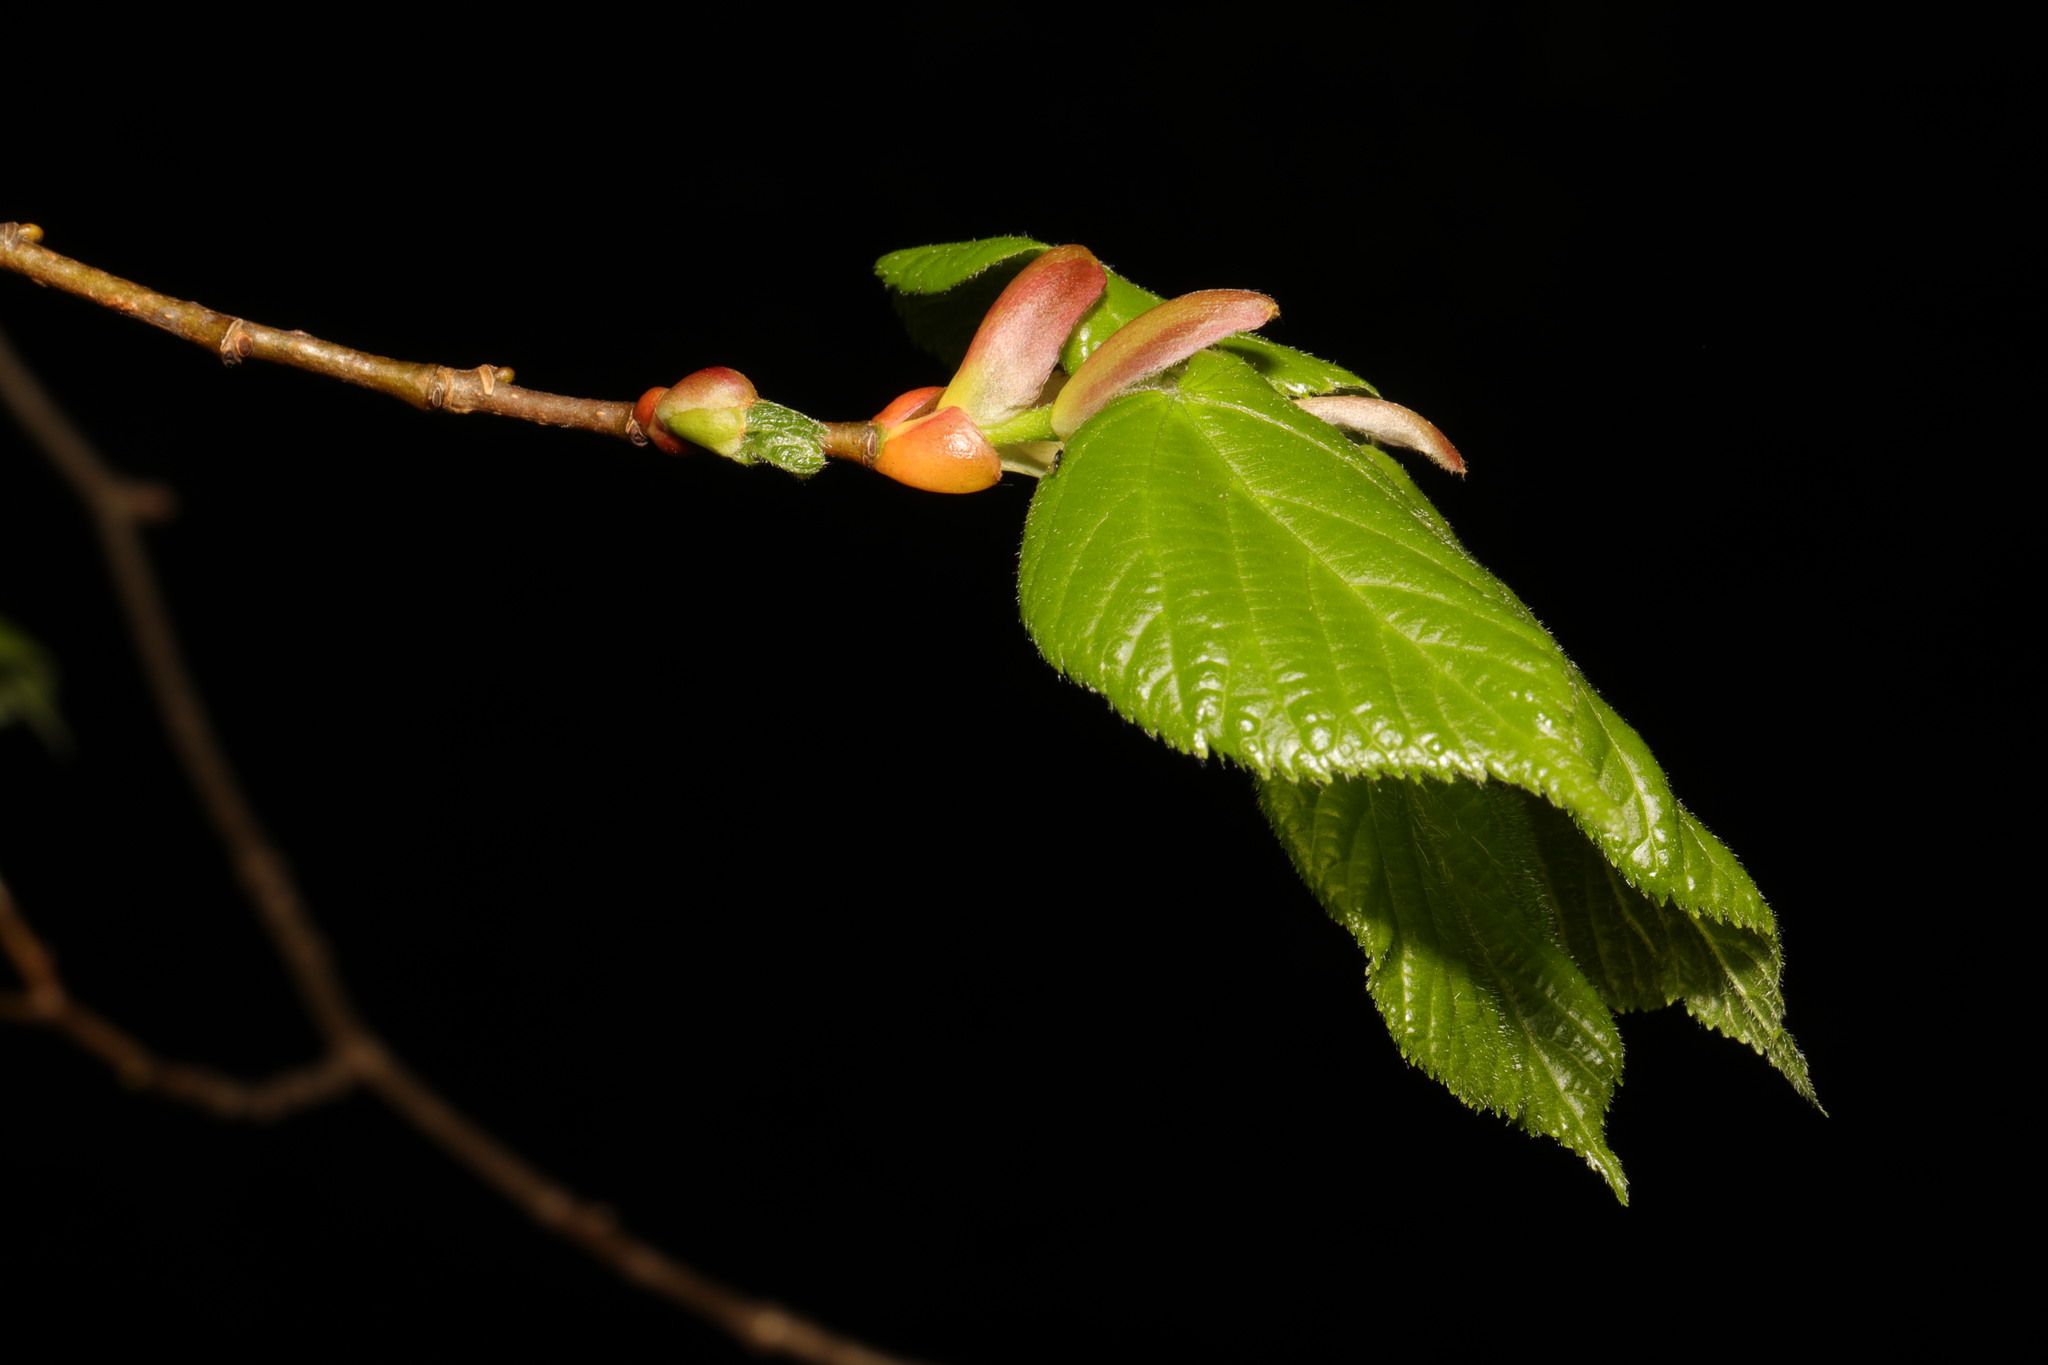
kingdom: Plantae
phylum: Tracheophyta
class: Magnoliopsida
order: Malvales
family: Malvaceae
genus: Tilia
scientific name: Tilia europaea
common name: European linden
